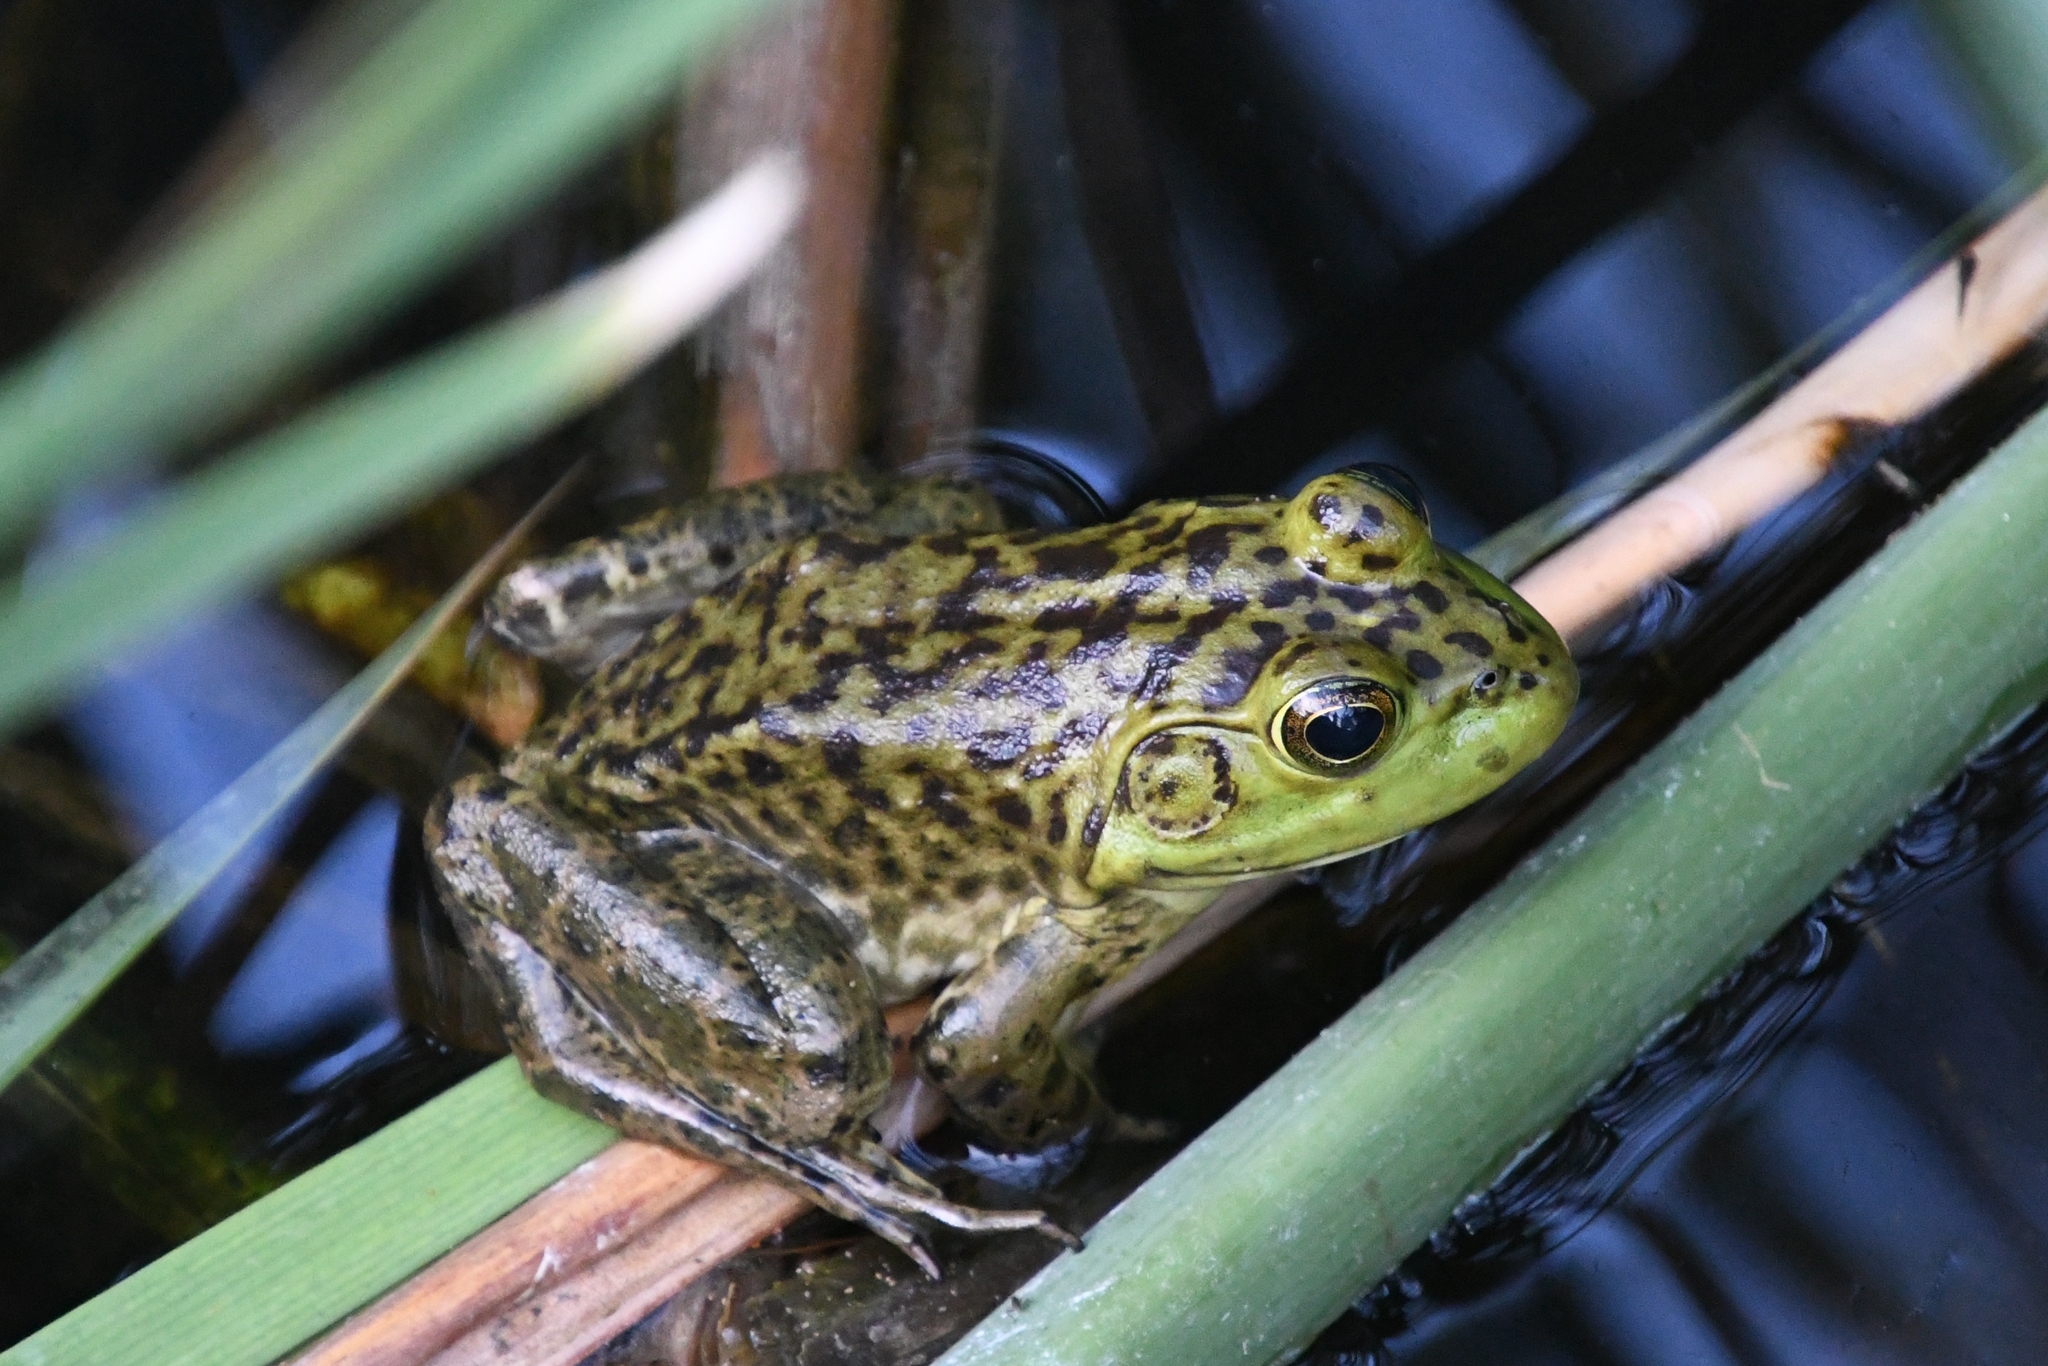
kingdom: Animalia
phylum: Chordata
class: Amphibia
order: Anura
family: Ranidae
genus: Lithobates
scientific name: Lithobates catesbeianus
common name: American bullfrog
